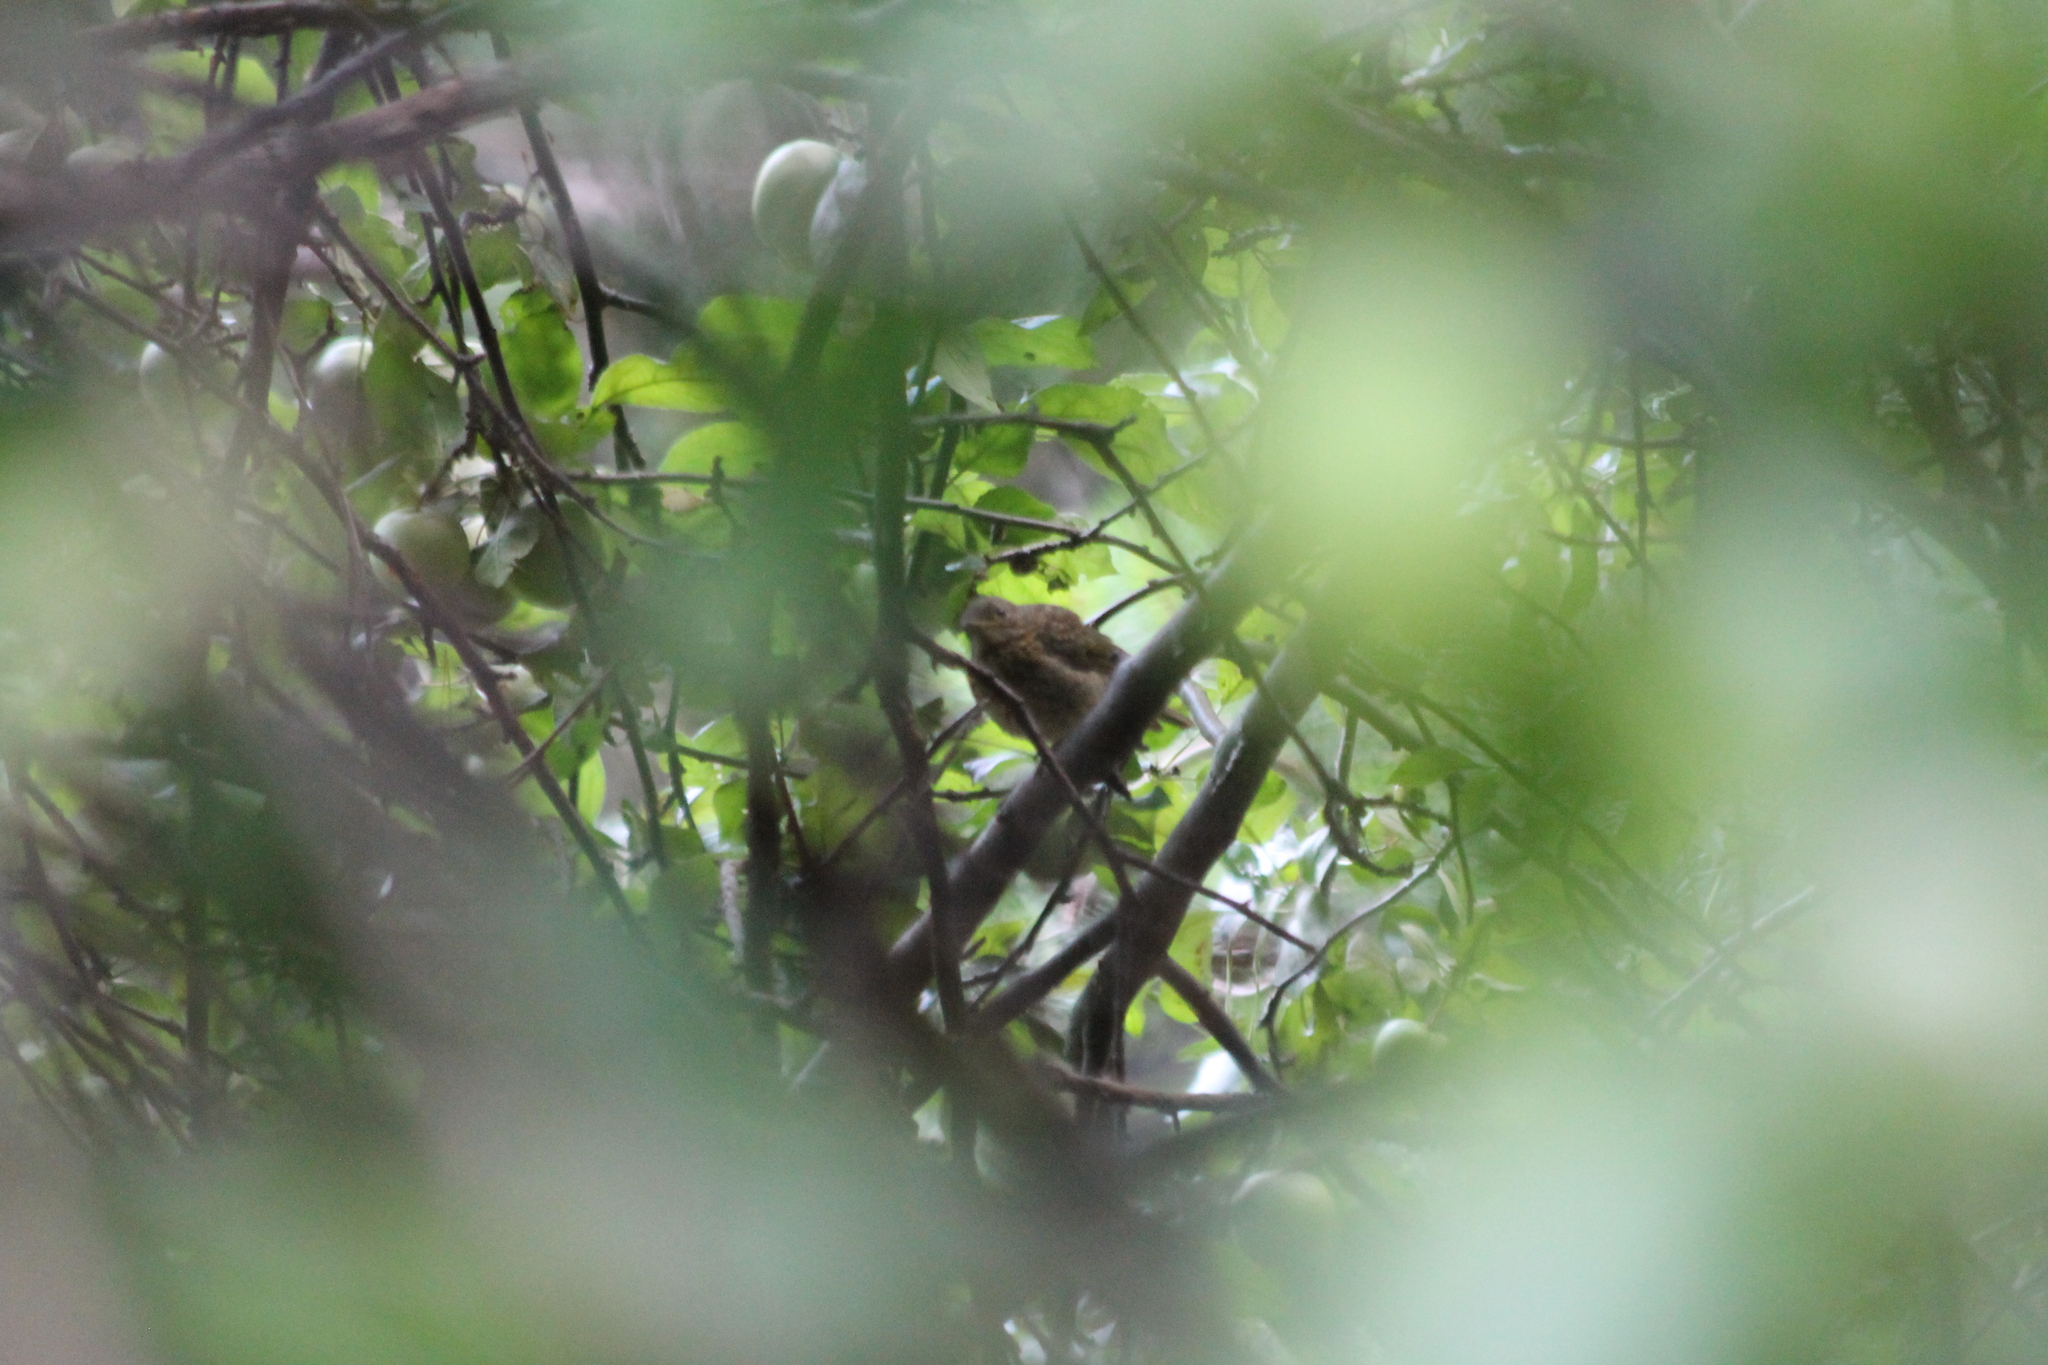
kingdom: Animalia
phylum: Chordata
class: Aves
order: Passeriformes
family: Muscicapidae
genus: Erithacus
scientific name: Erithacus rubecula
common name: European robin
